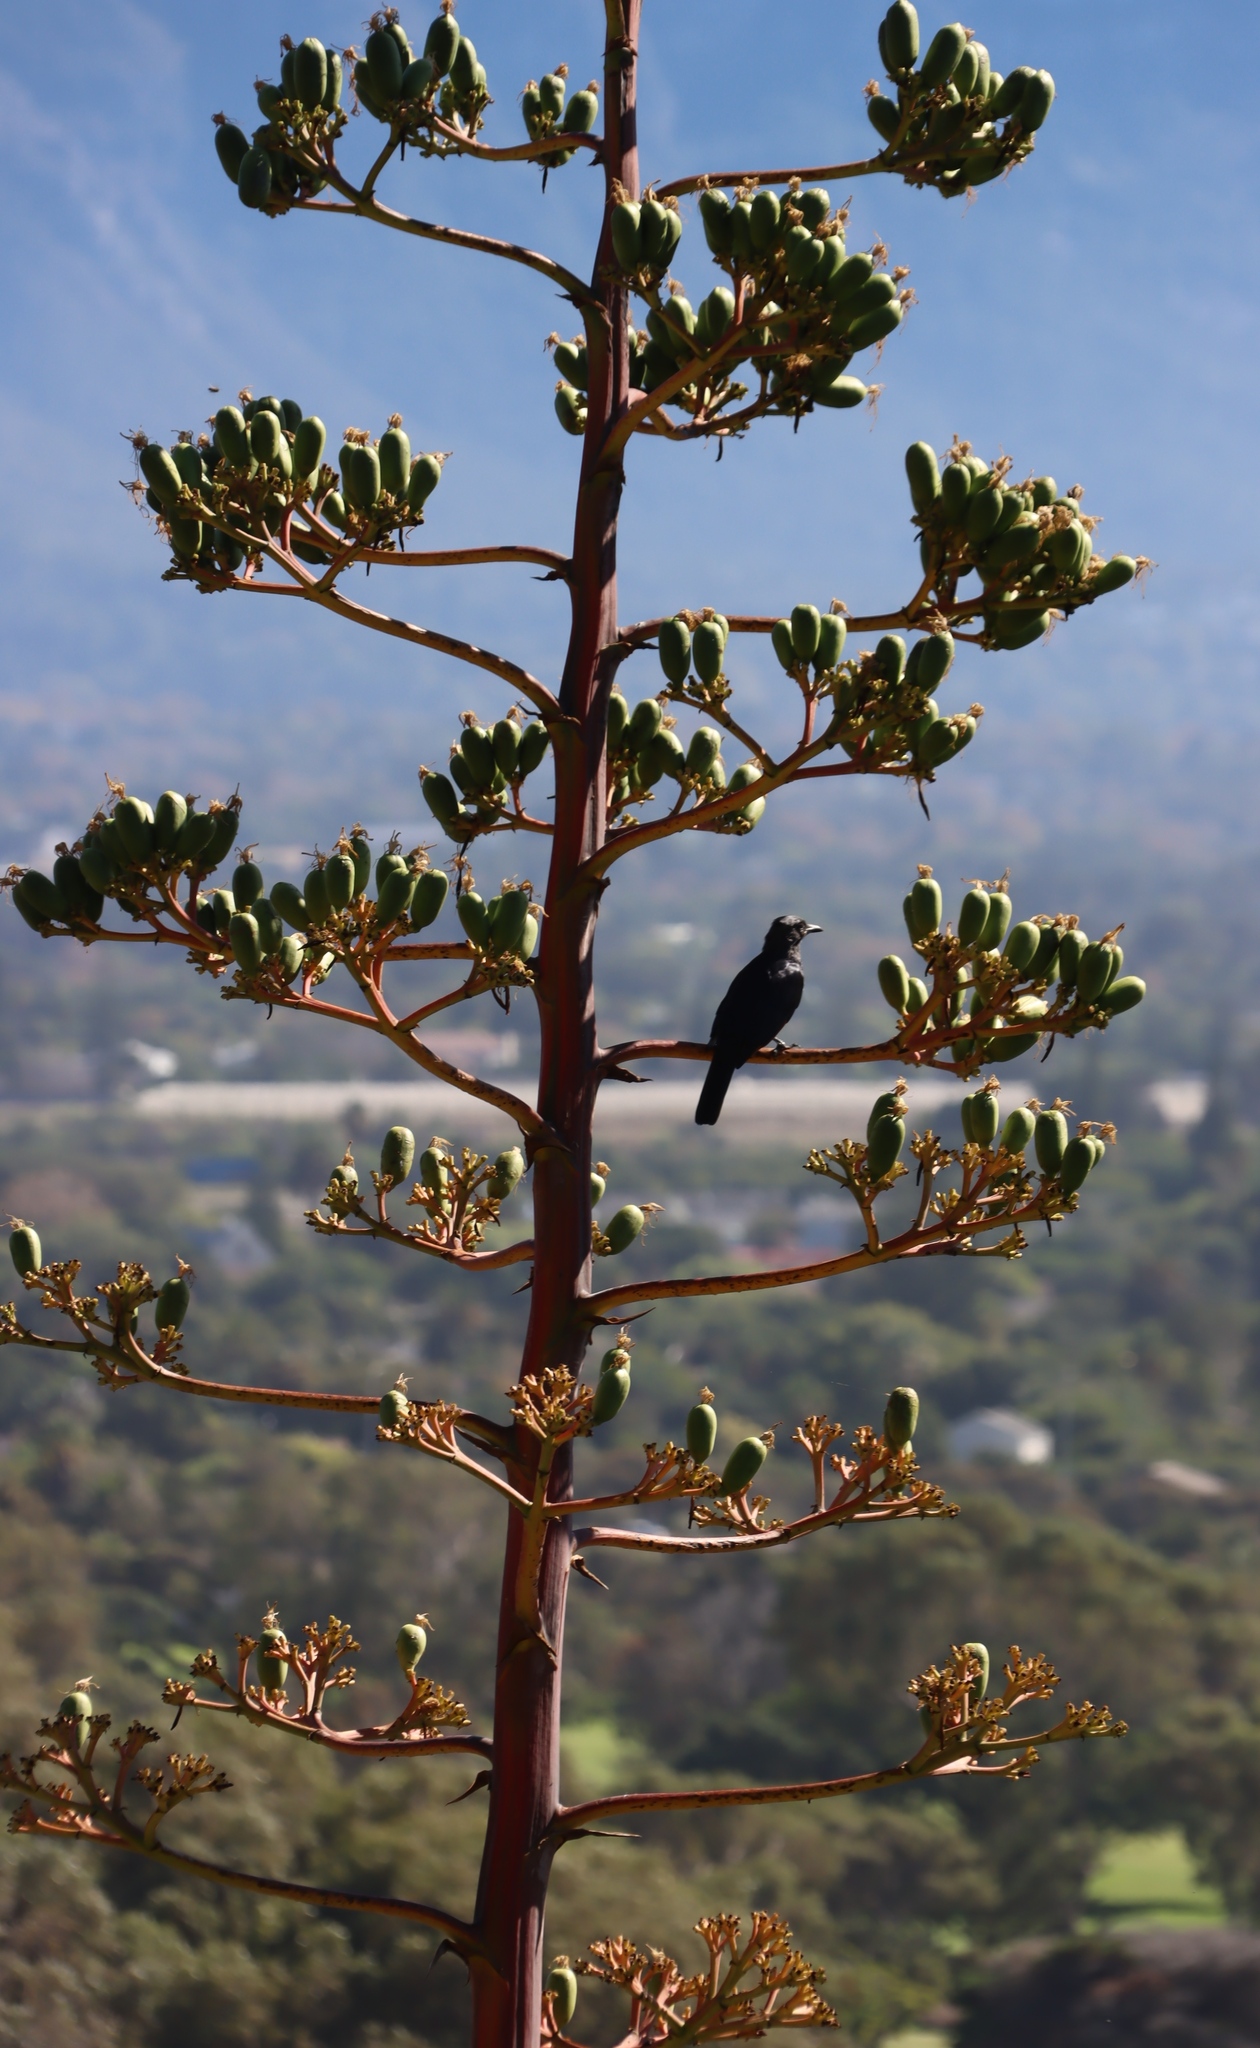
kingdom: Plantae
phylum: Tracheophyta
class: Liliopsida
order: Asparagales
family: Asparagaceae
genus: Agave
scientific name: Agave angustifolia
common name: Mescal agave
